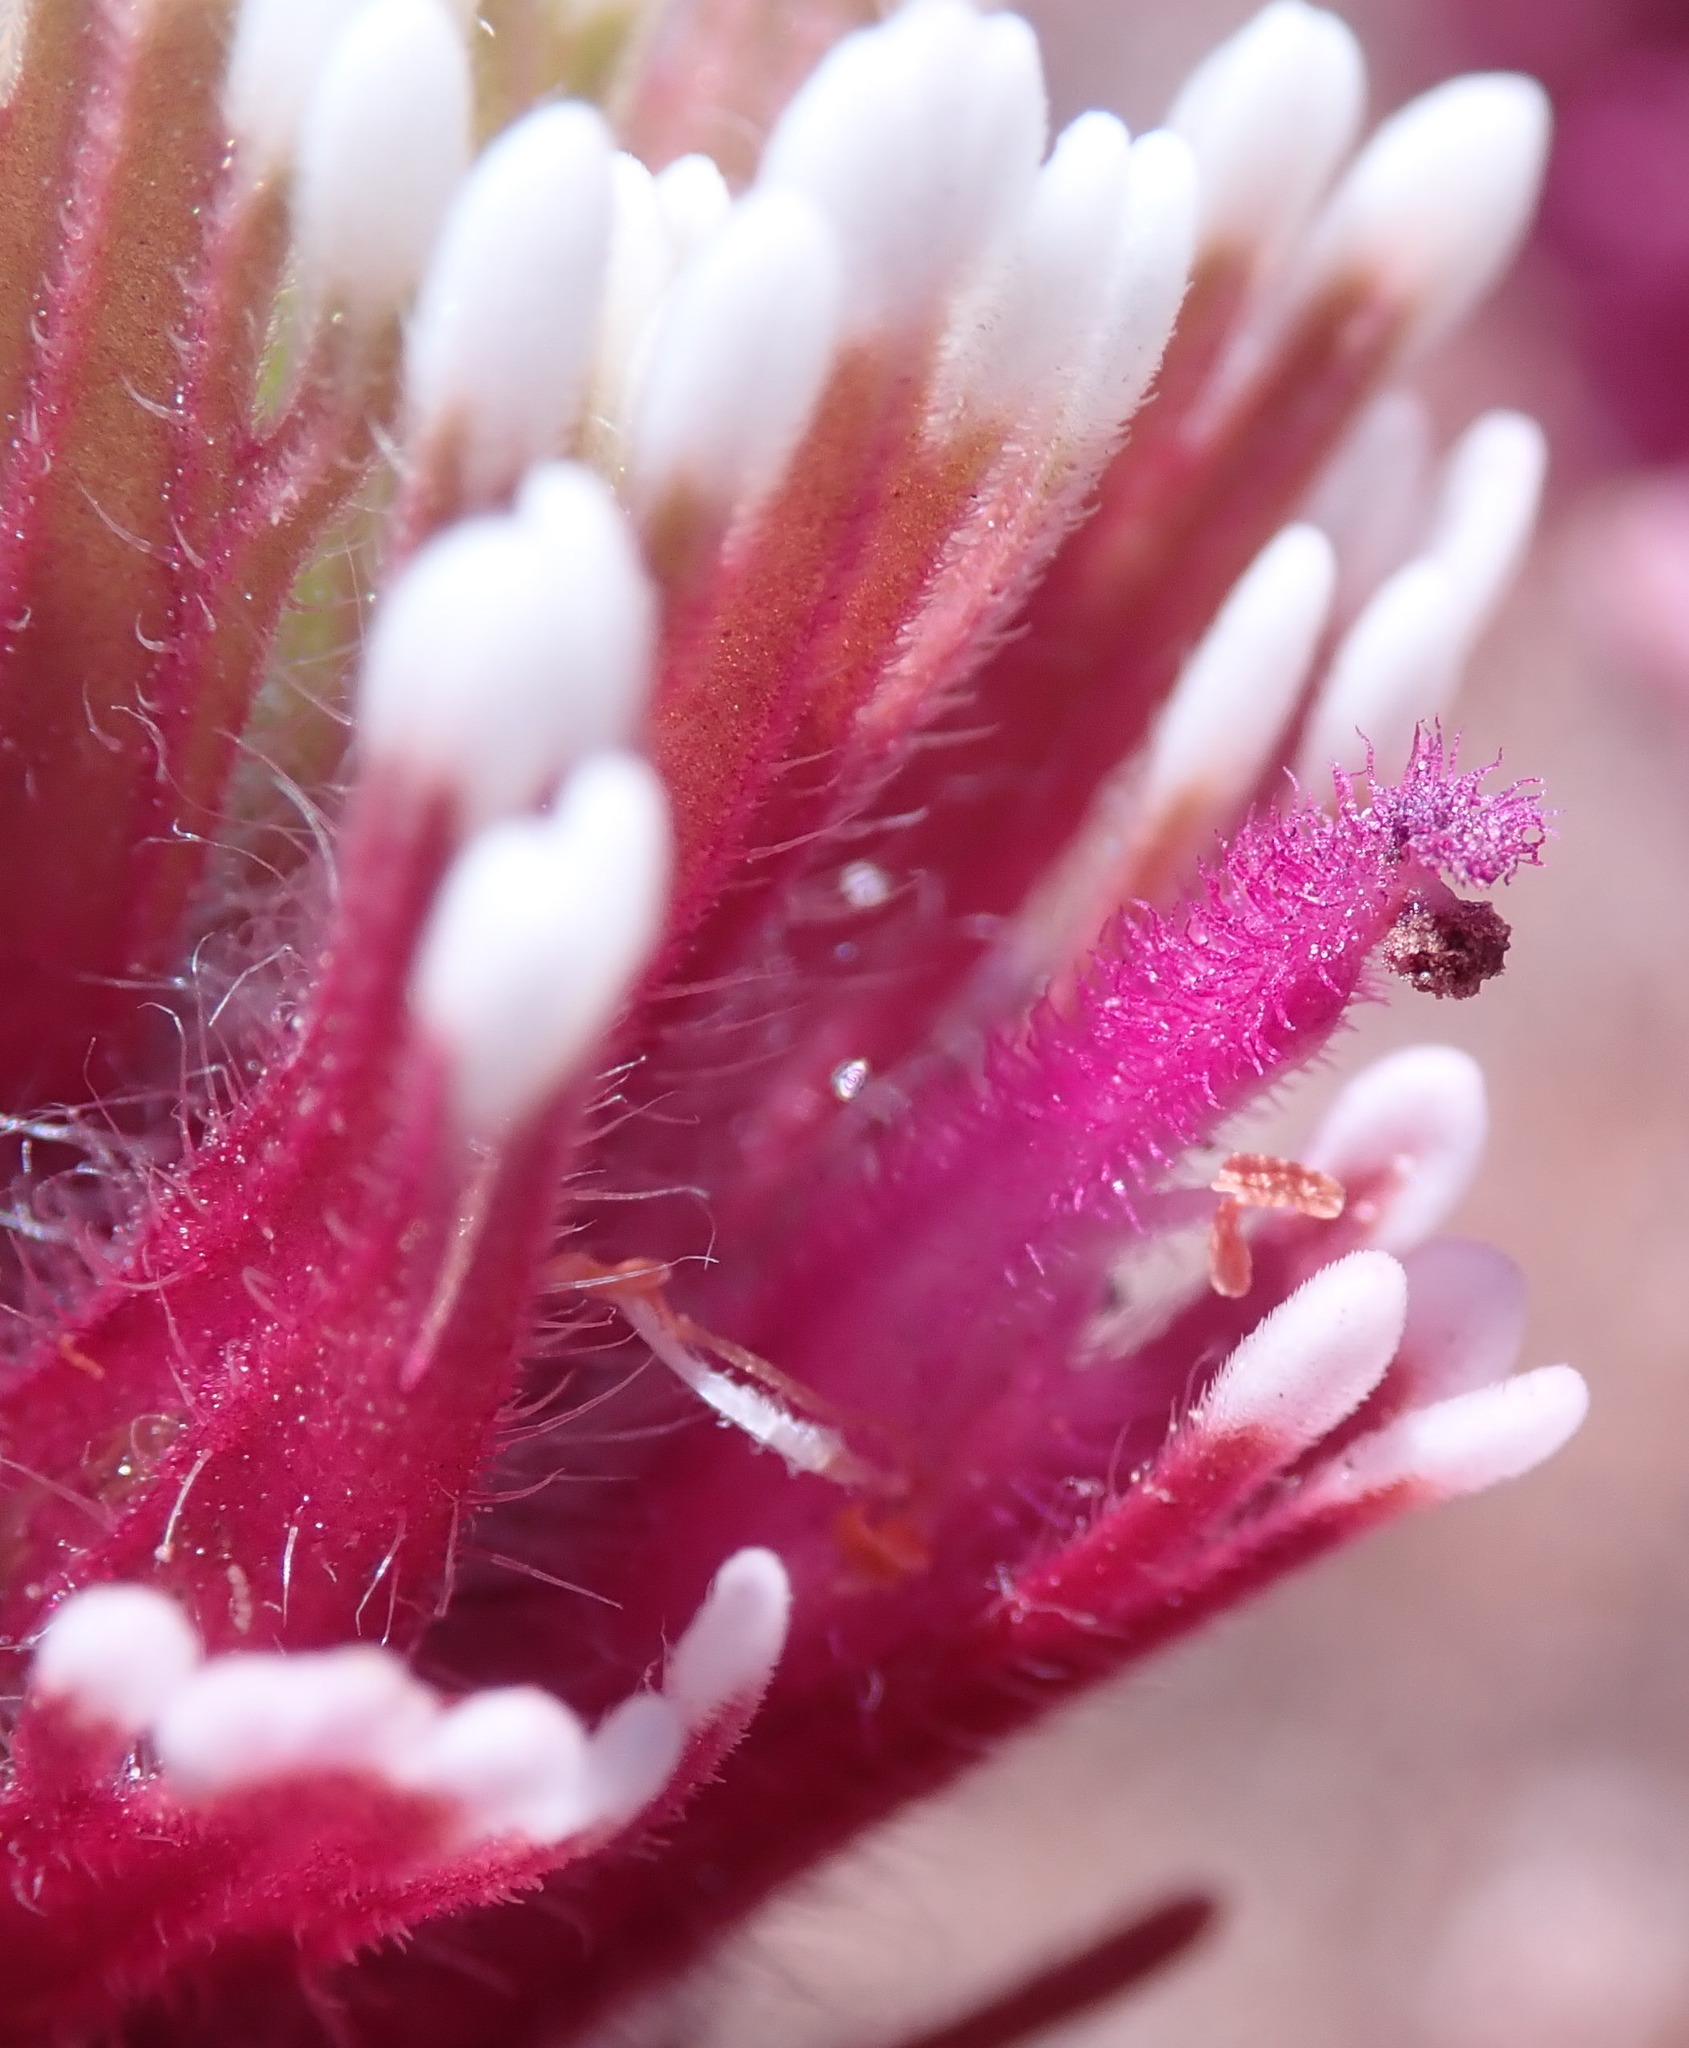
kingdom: Plantae
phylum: Tracheophyta
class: Magnoliopsida
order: Lamiales
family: Orobanchaceae
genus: Castilleja
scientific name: Castilleja exserta
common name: Purple owl-clover
